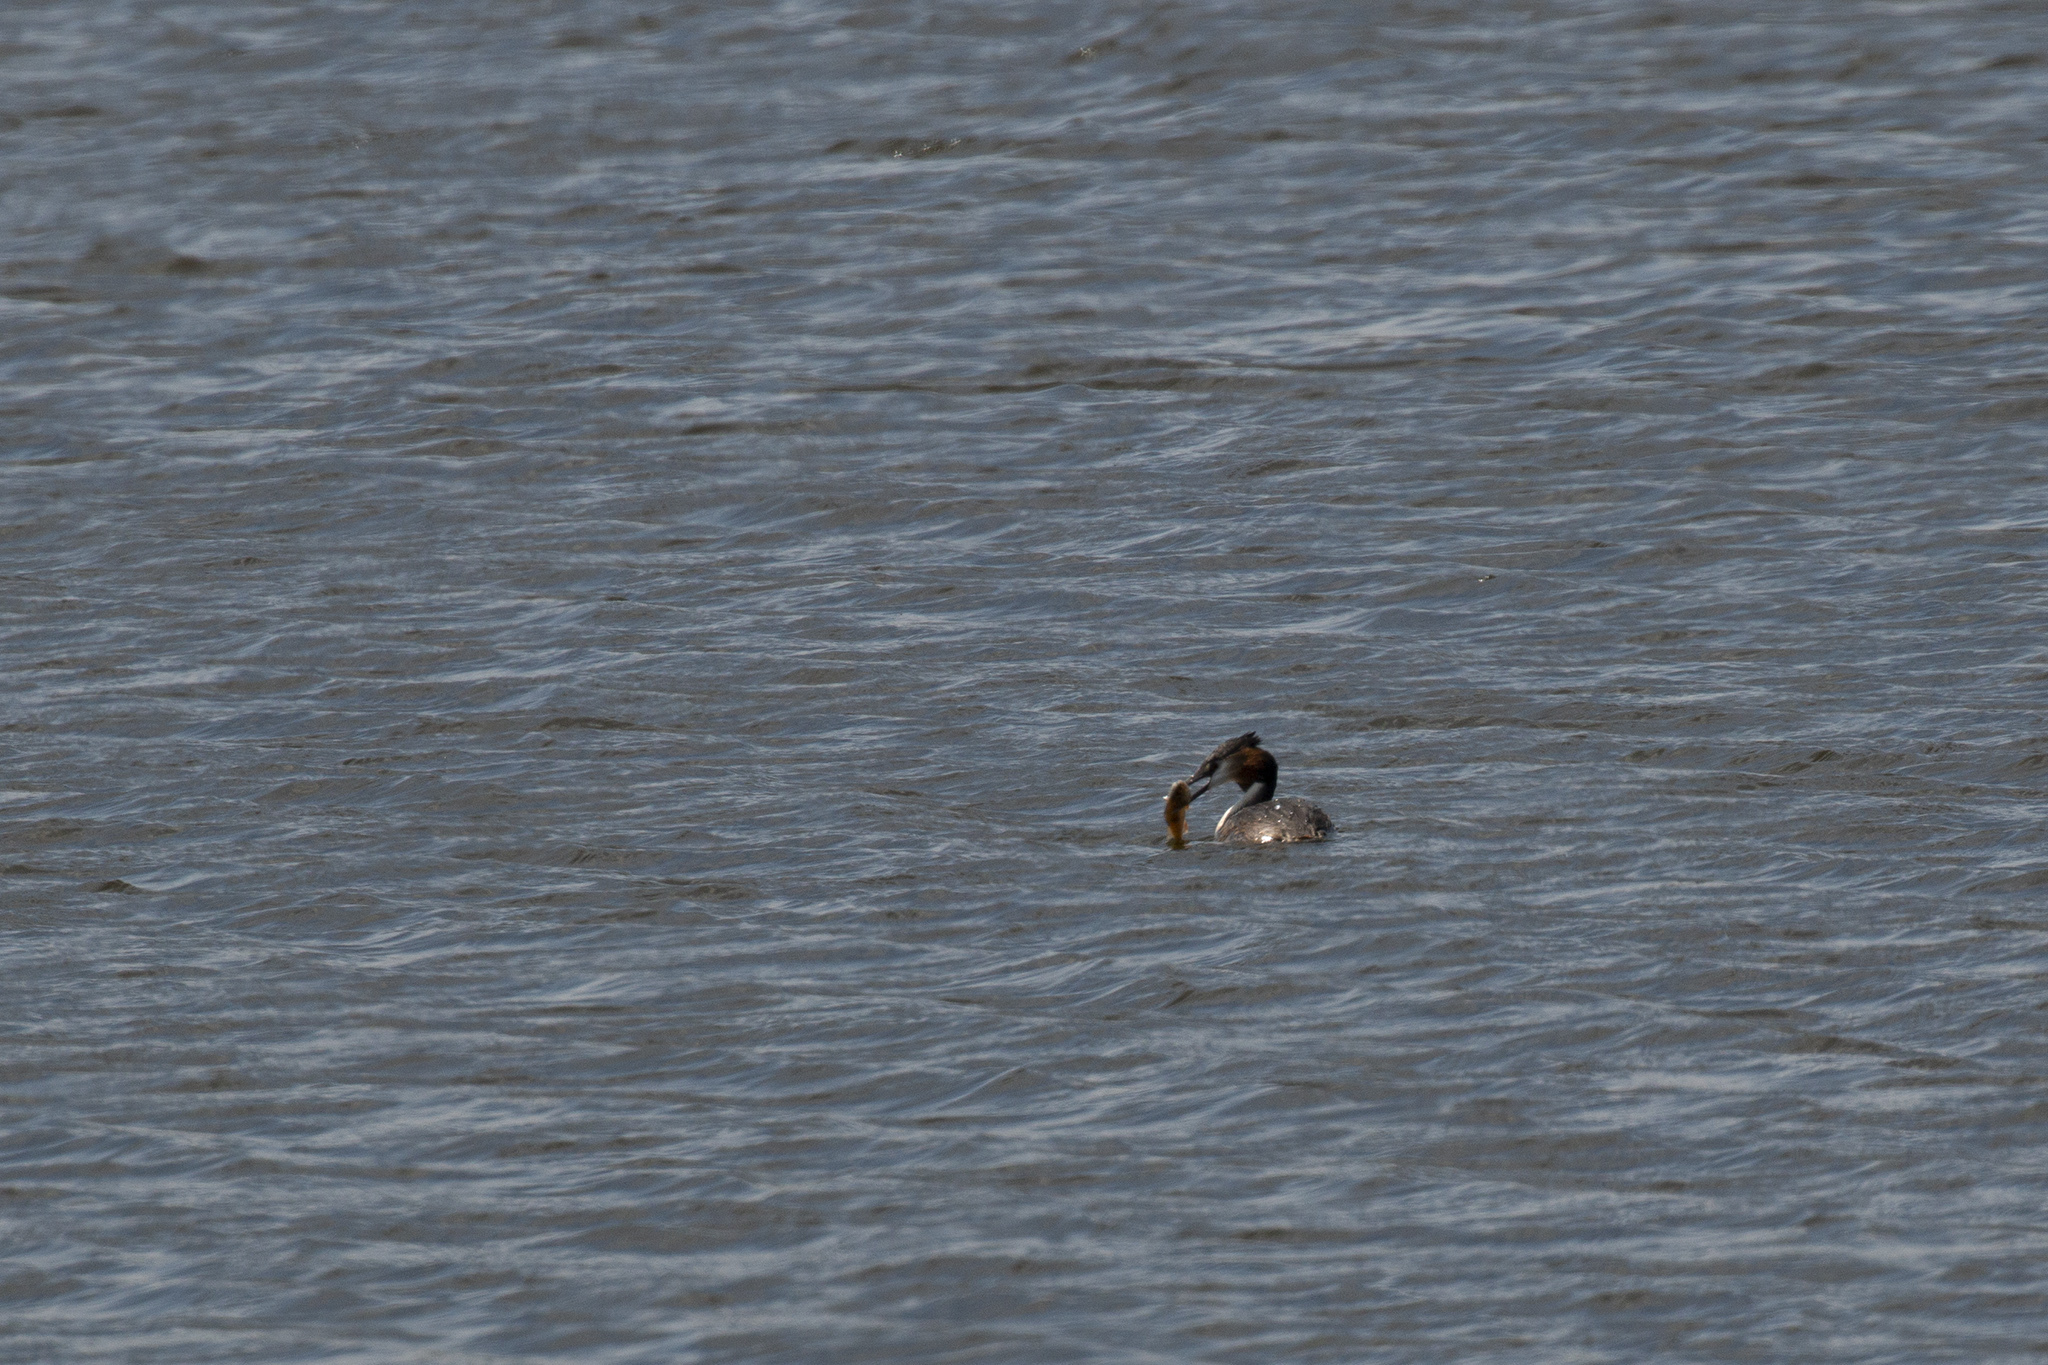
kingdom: Animalia
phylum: Chordata
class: Aves
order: Podicipediformes
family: Podicipedidae
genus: Podiceps
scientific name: Podiceps cristatus
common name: Great crested grebe
